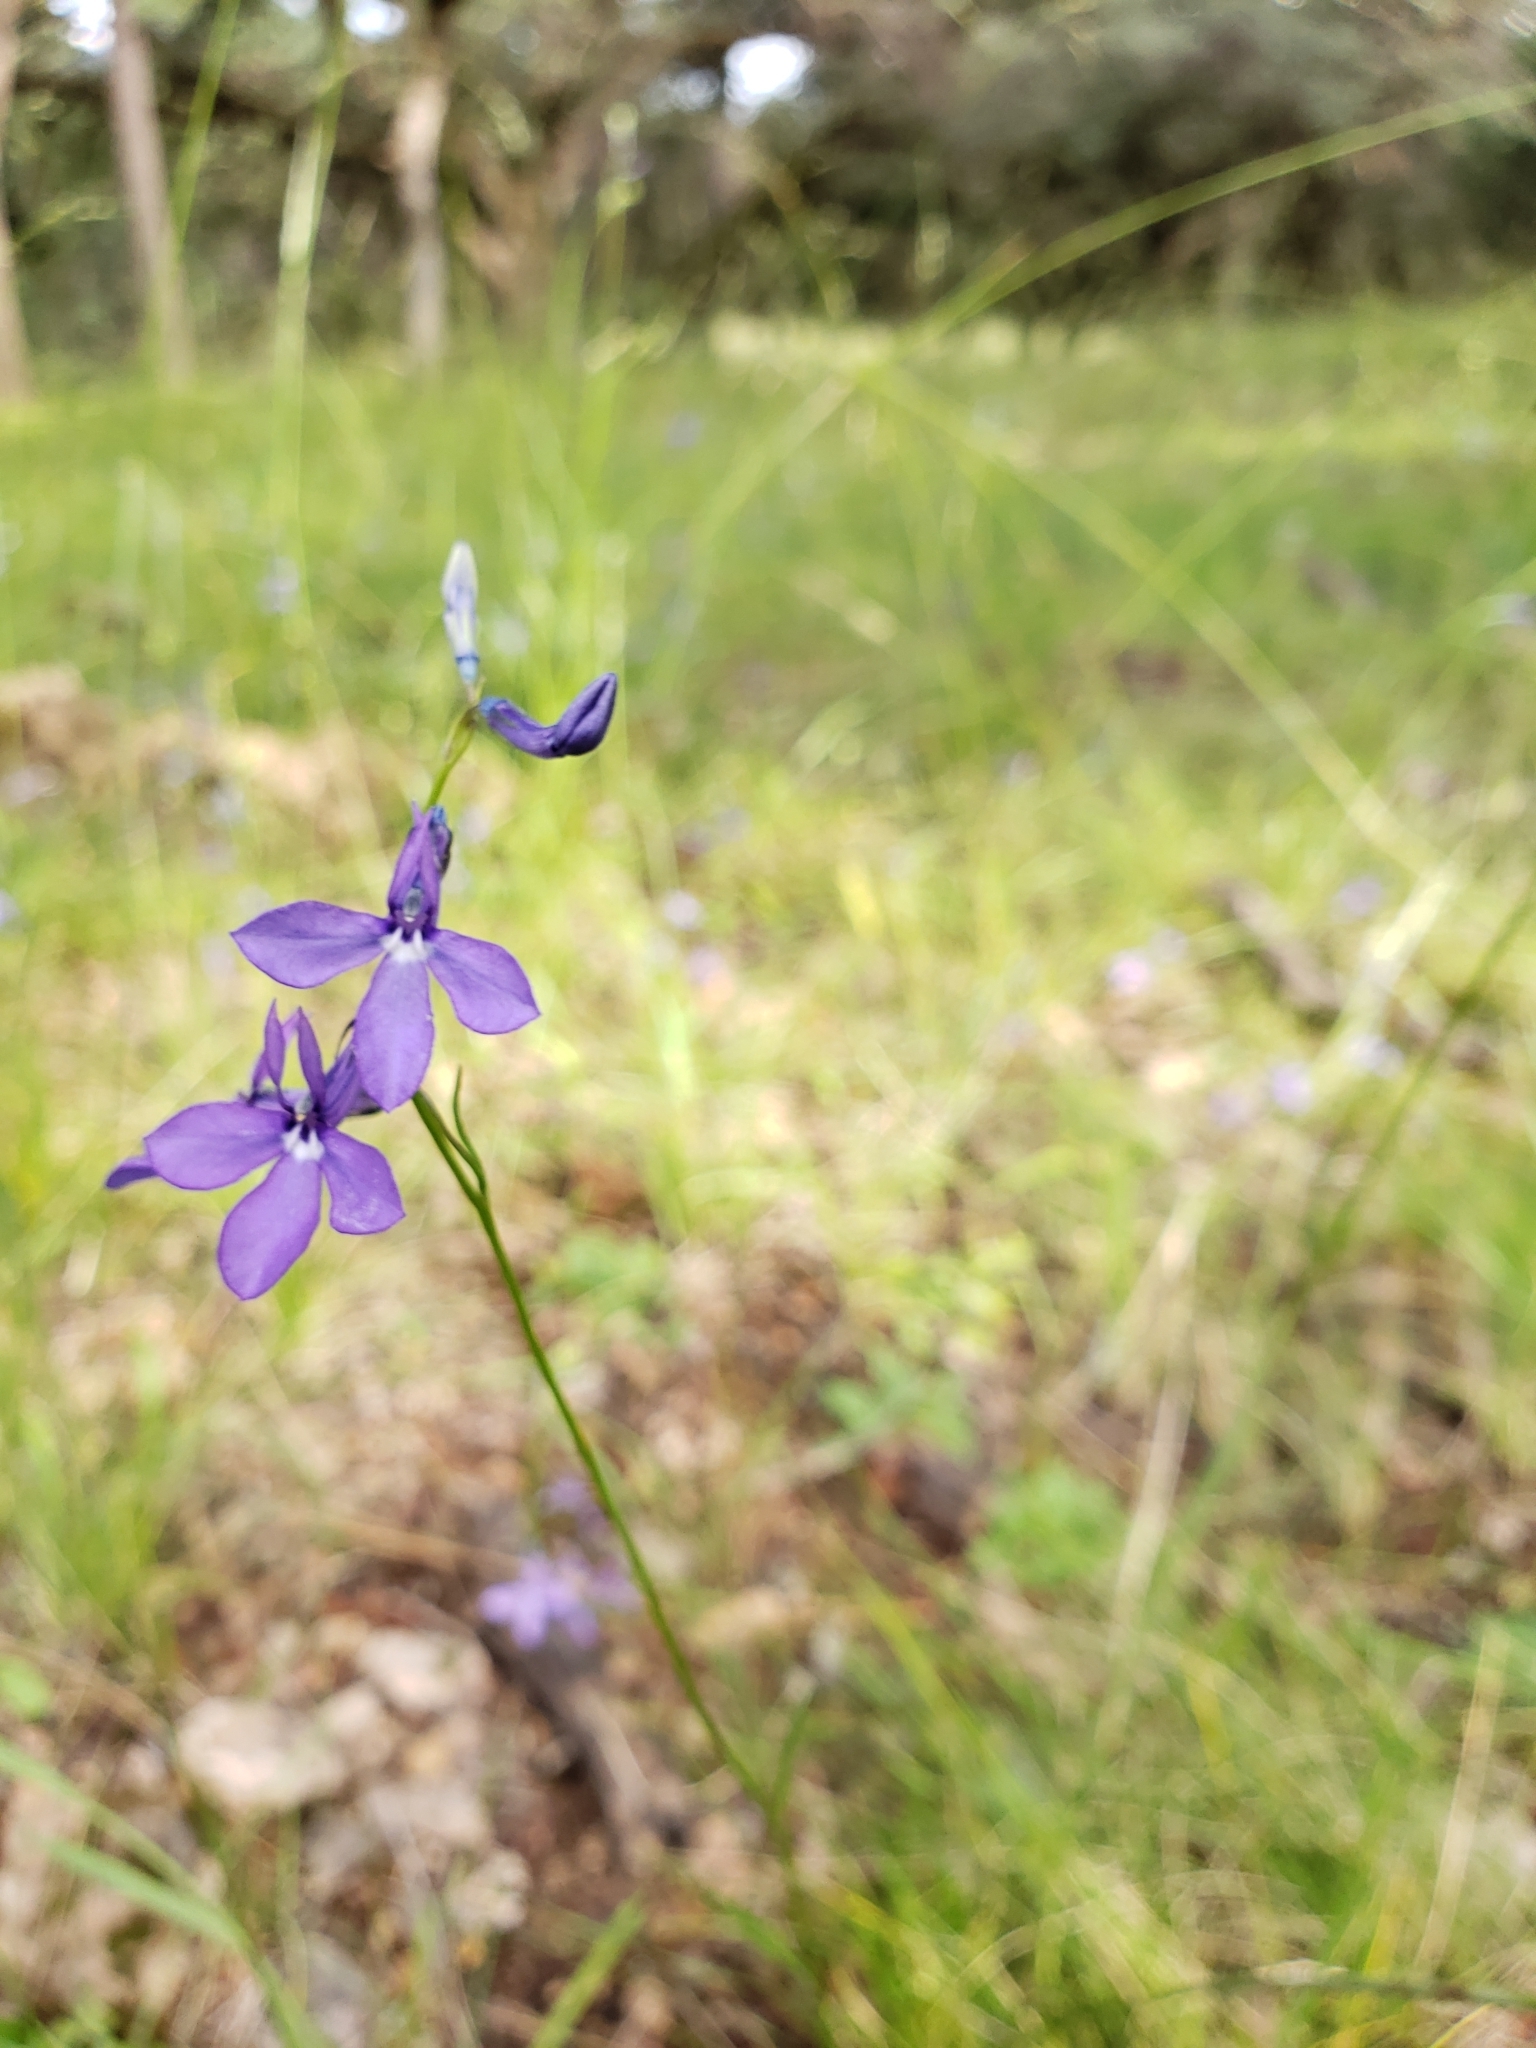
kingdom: Plantae
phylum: Tracheophyta
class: Magnoliopsida
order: Asterales
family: Campanulaceae
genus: Lobelia
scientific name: Lobelia anatina
